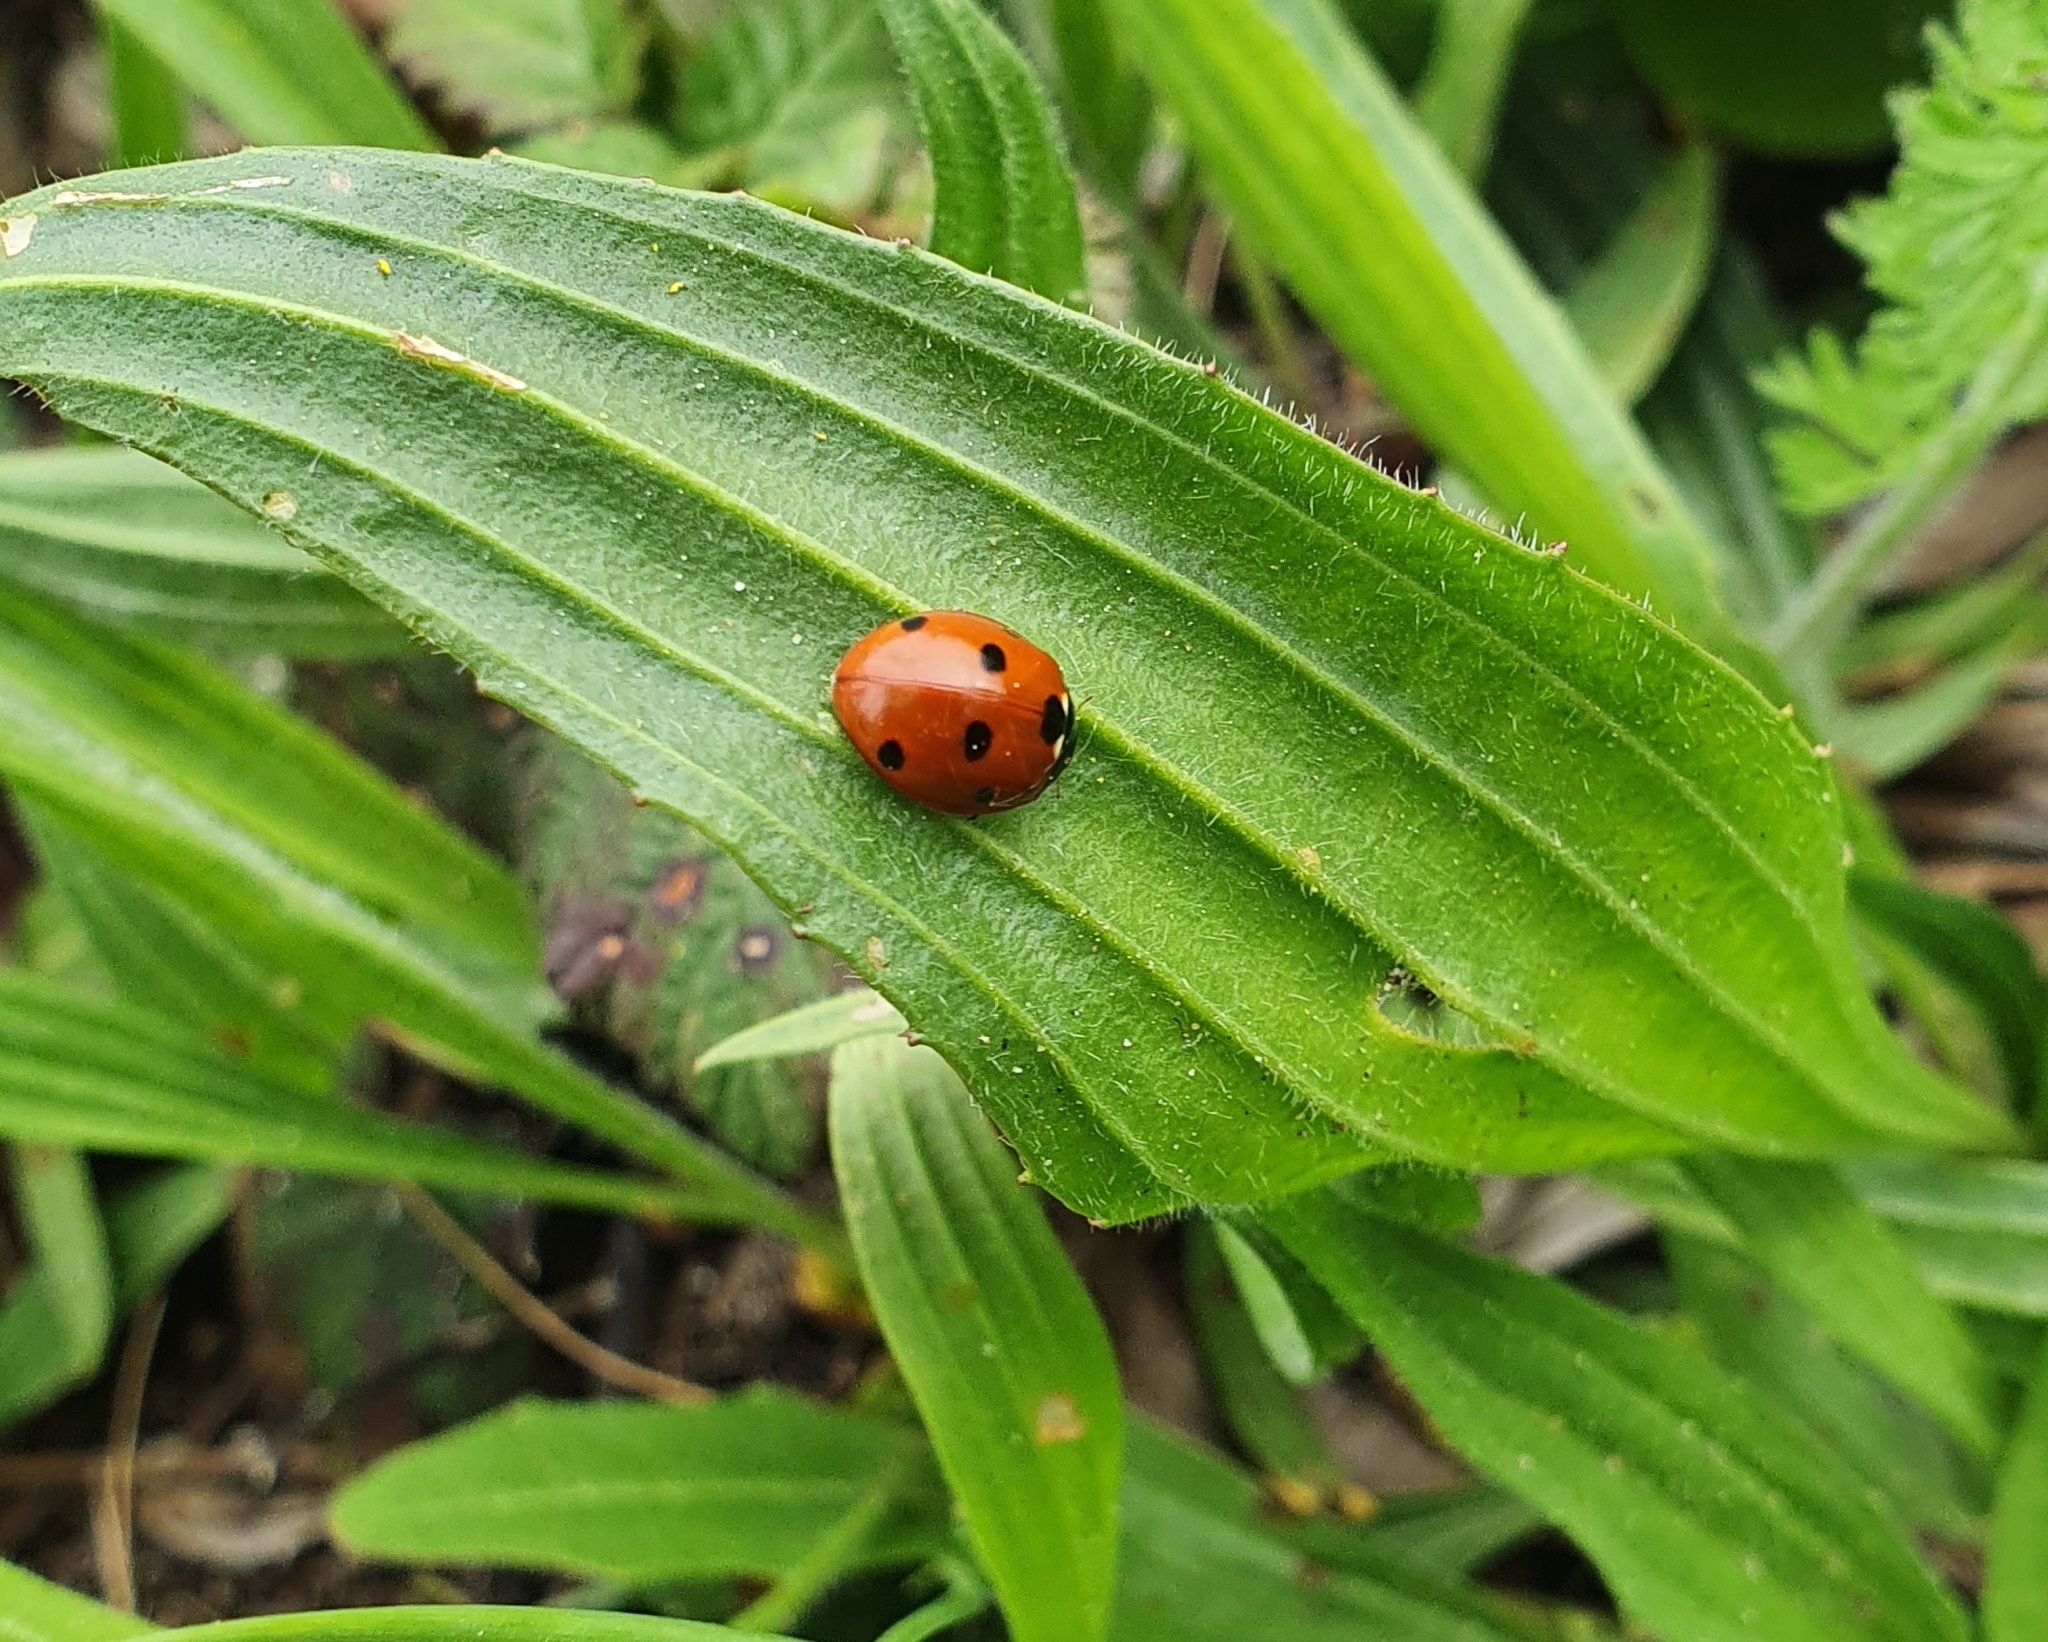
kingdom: Animalia
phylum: Arthropoda
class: Insecta
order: Coleoptera
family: Coccinellidae
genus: Coccinella
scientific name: Coccinella septempunctata
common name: Sevenspotted lady beetle
